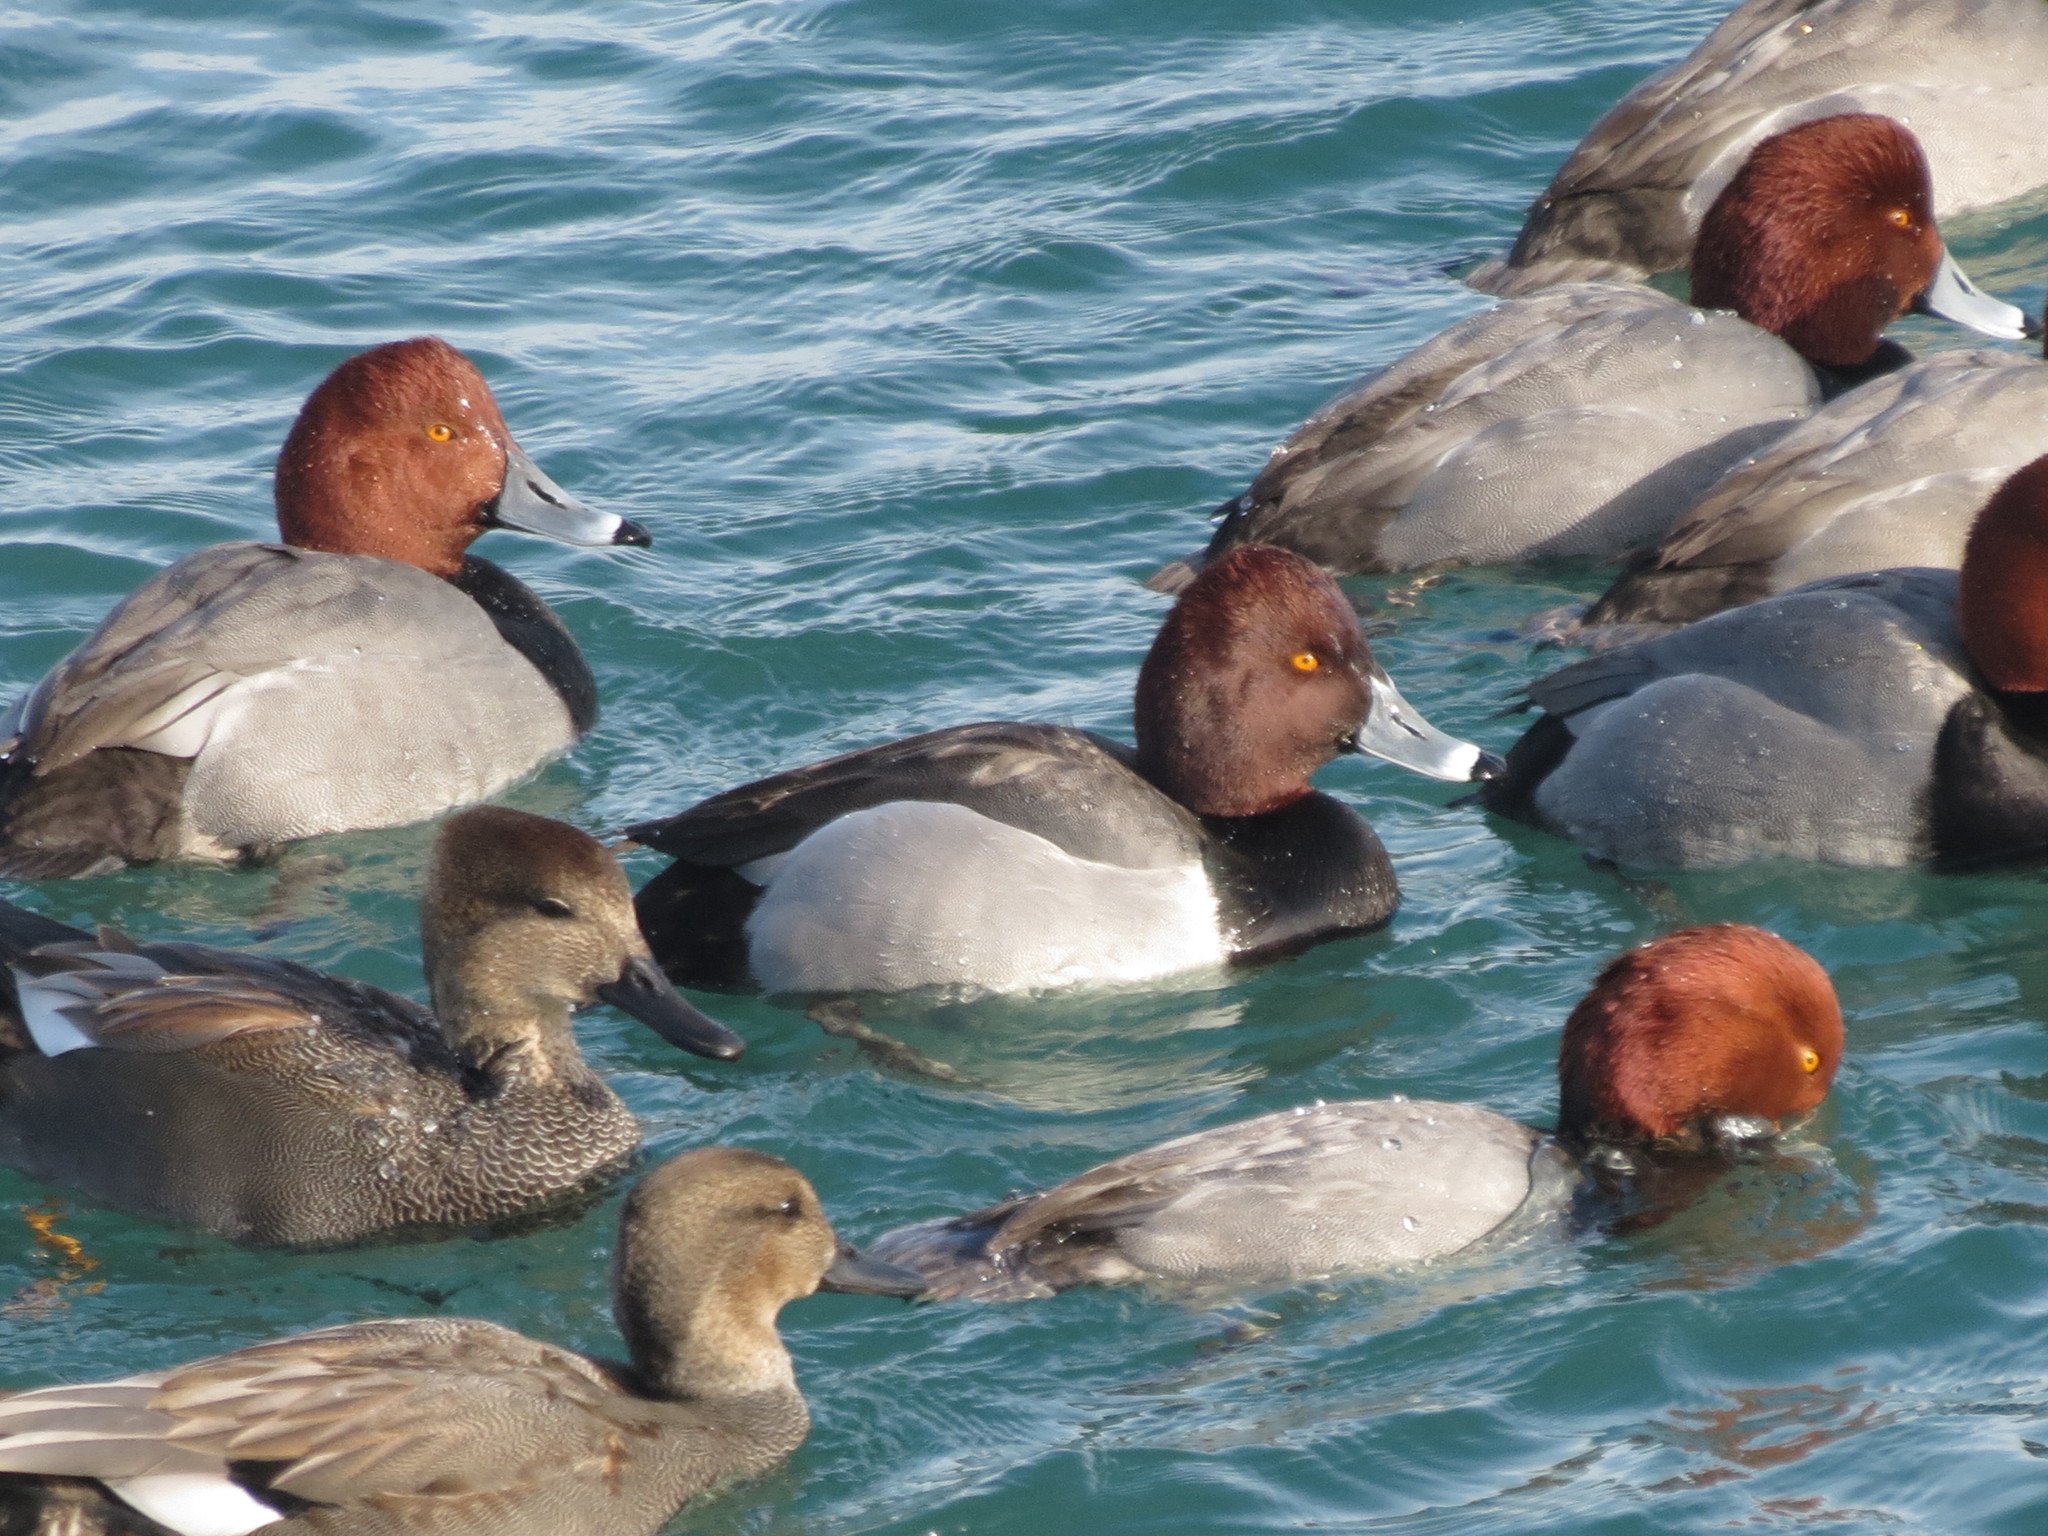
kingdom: Animalia
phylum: Chordata
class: Aves
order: Anseriformes
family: Anatidae
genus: Aythya
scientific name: Aythya
